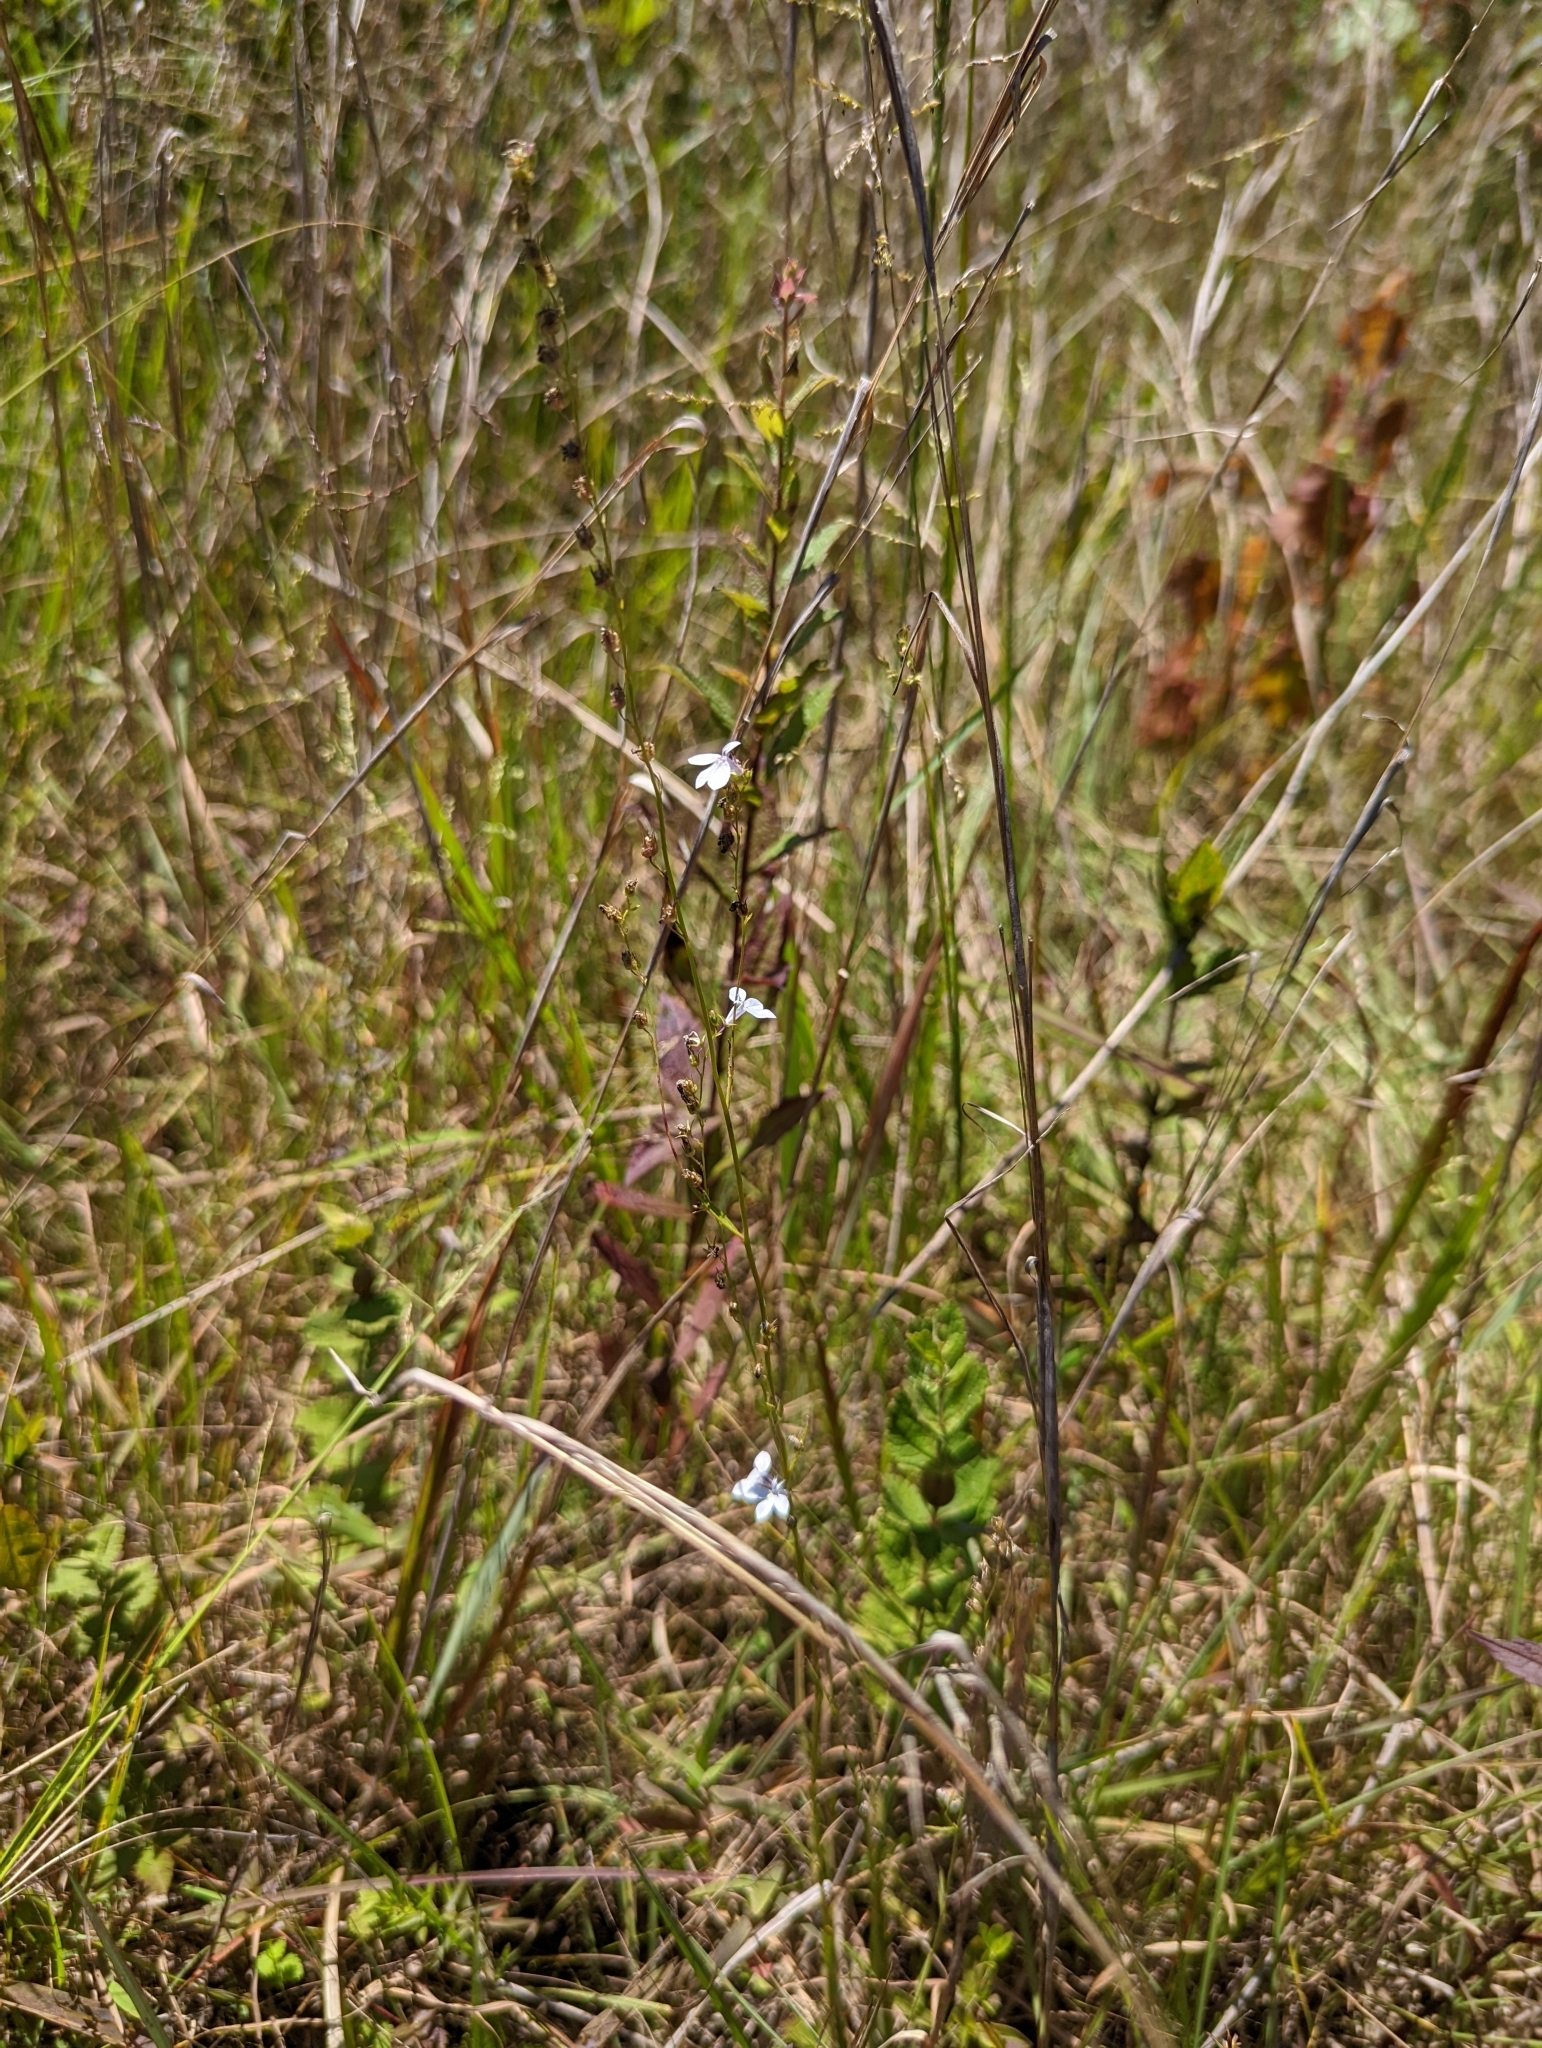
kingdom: Plantae
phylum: Tracheophyta
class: Magnoliopsida
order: Asterales
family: Campanulaceae
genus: Lobelia
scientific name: Lobelia nuttallii
